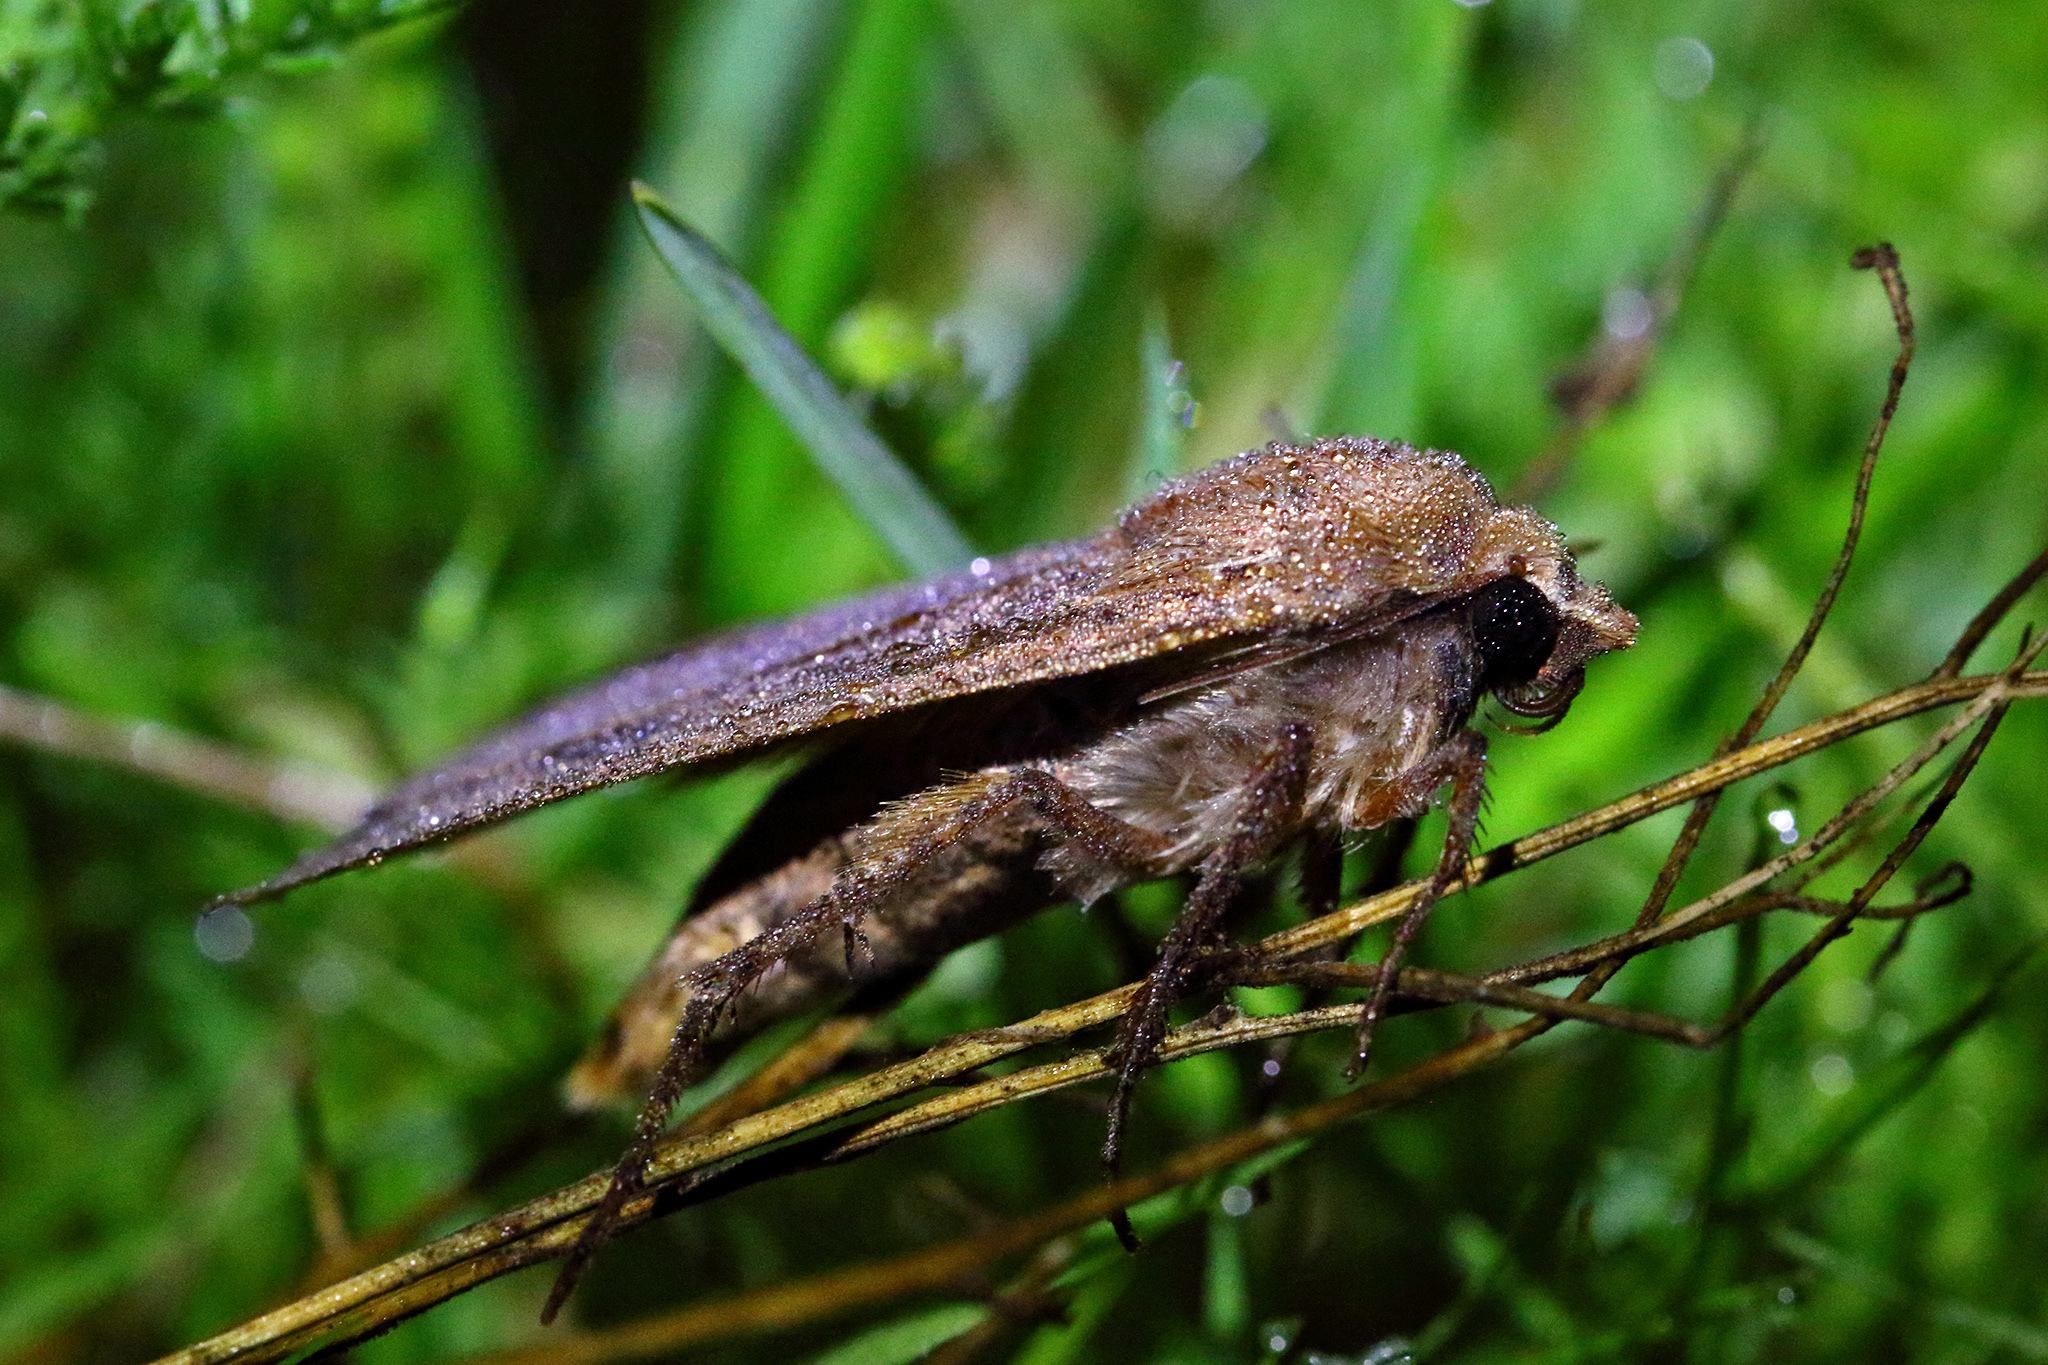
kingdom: Animalia
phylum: Arthropoda
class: Insecta
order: Lepidoptera
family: Noctuidae
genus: Noctua
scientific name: Noctua pronuba
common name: Large yellow underwing
